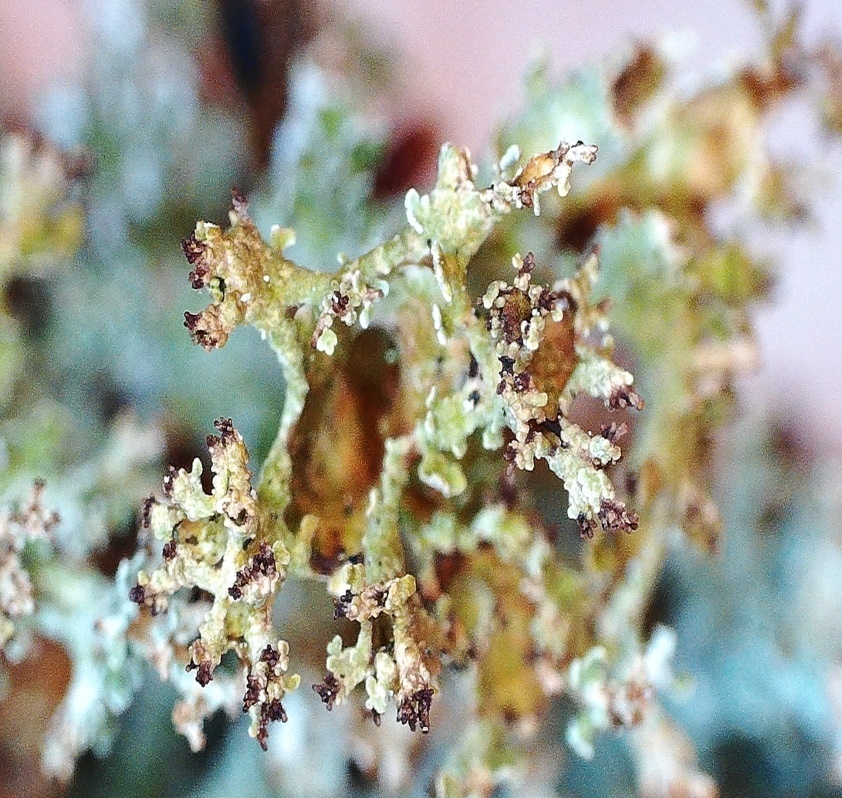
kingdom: Fungi
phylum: Ascomycota
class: Lecanoromycetes
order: Lecanorales
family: Cladoniaceae
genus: Cladonia
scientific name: Cladonia crispata
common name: Organ-pipe lichen
